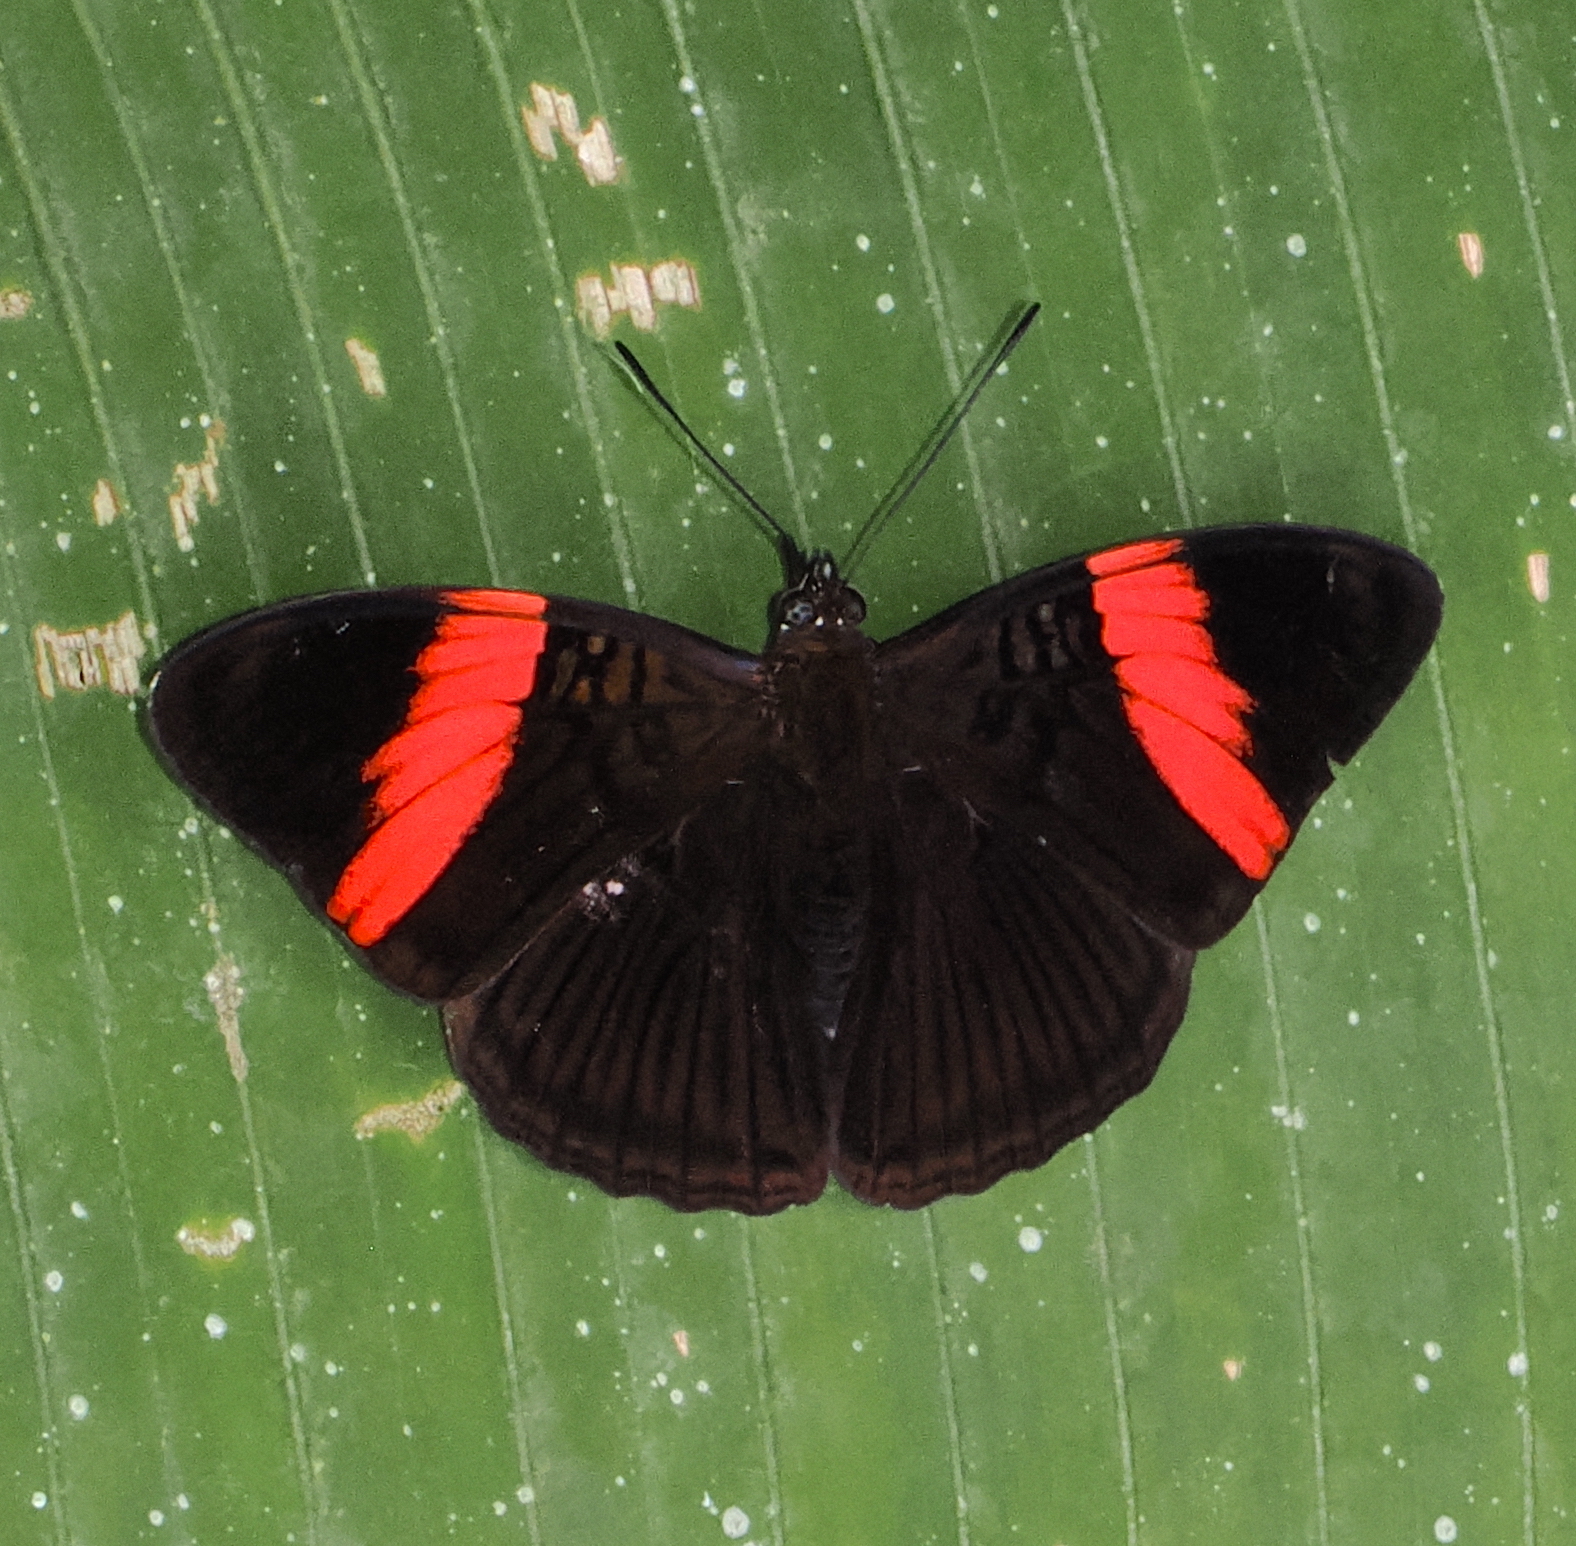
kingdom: Animalia
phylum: Arthropoda
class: Insecta
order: Lepidoptera
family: Nymphalidae
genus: Limenitis
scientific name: Limenitis isis
